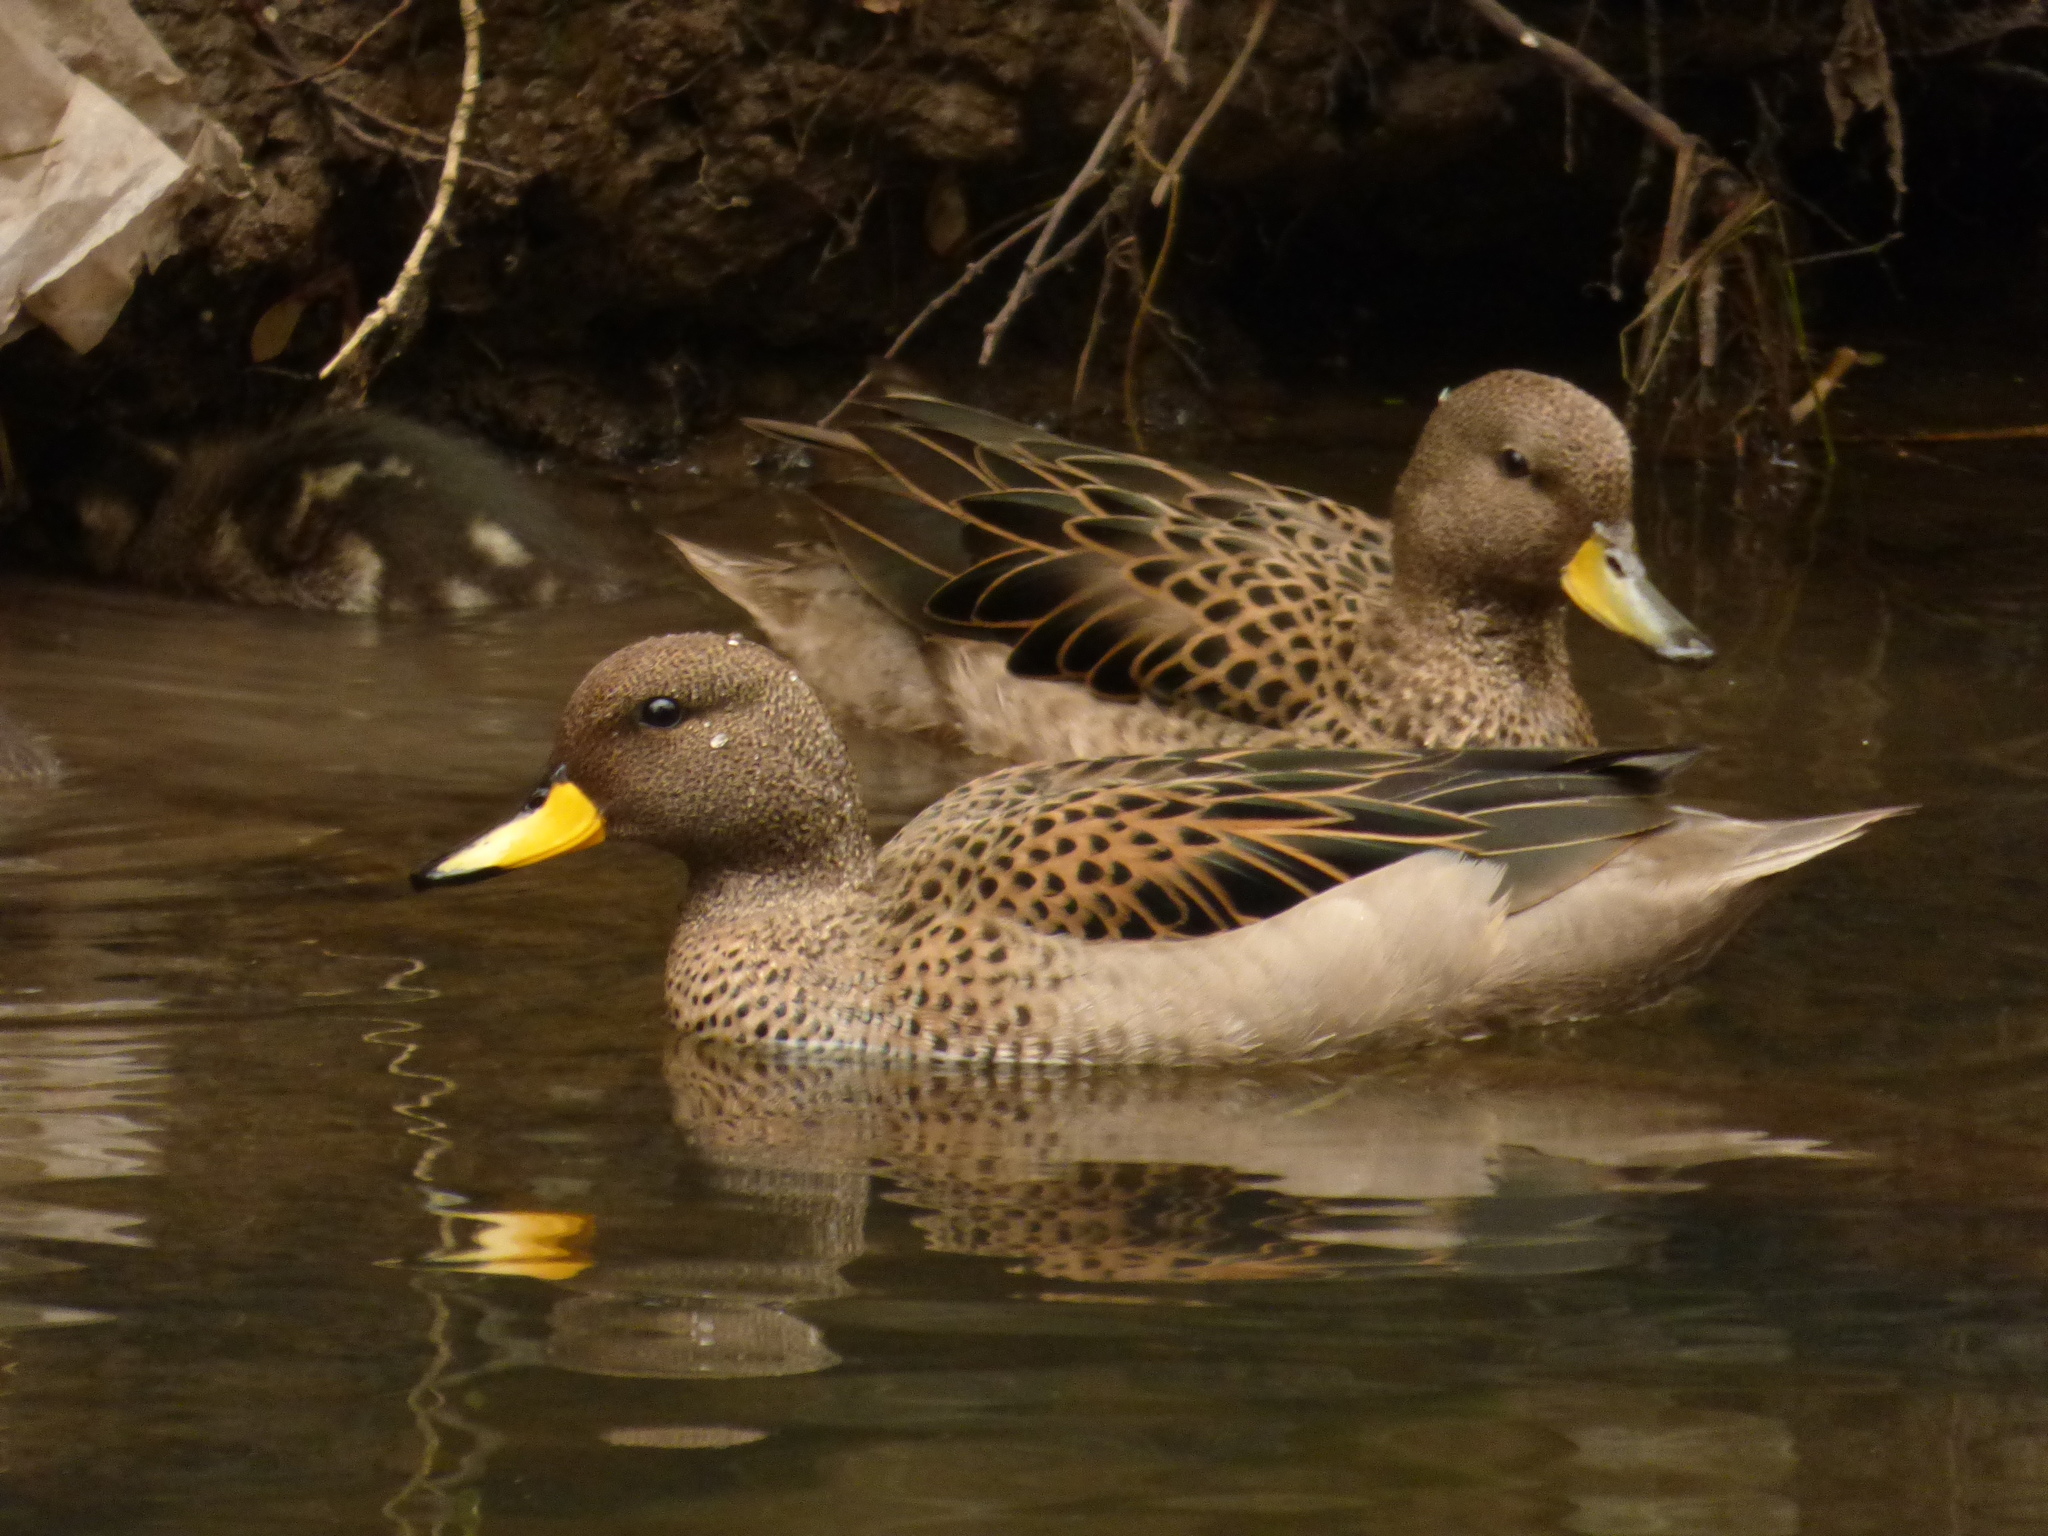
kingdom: Animalia
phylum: Chordata
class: Aves
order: Anseriformes
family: Anatidae
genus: Anas
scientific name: Anas flavirostris
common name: Yellow-billed teal
